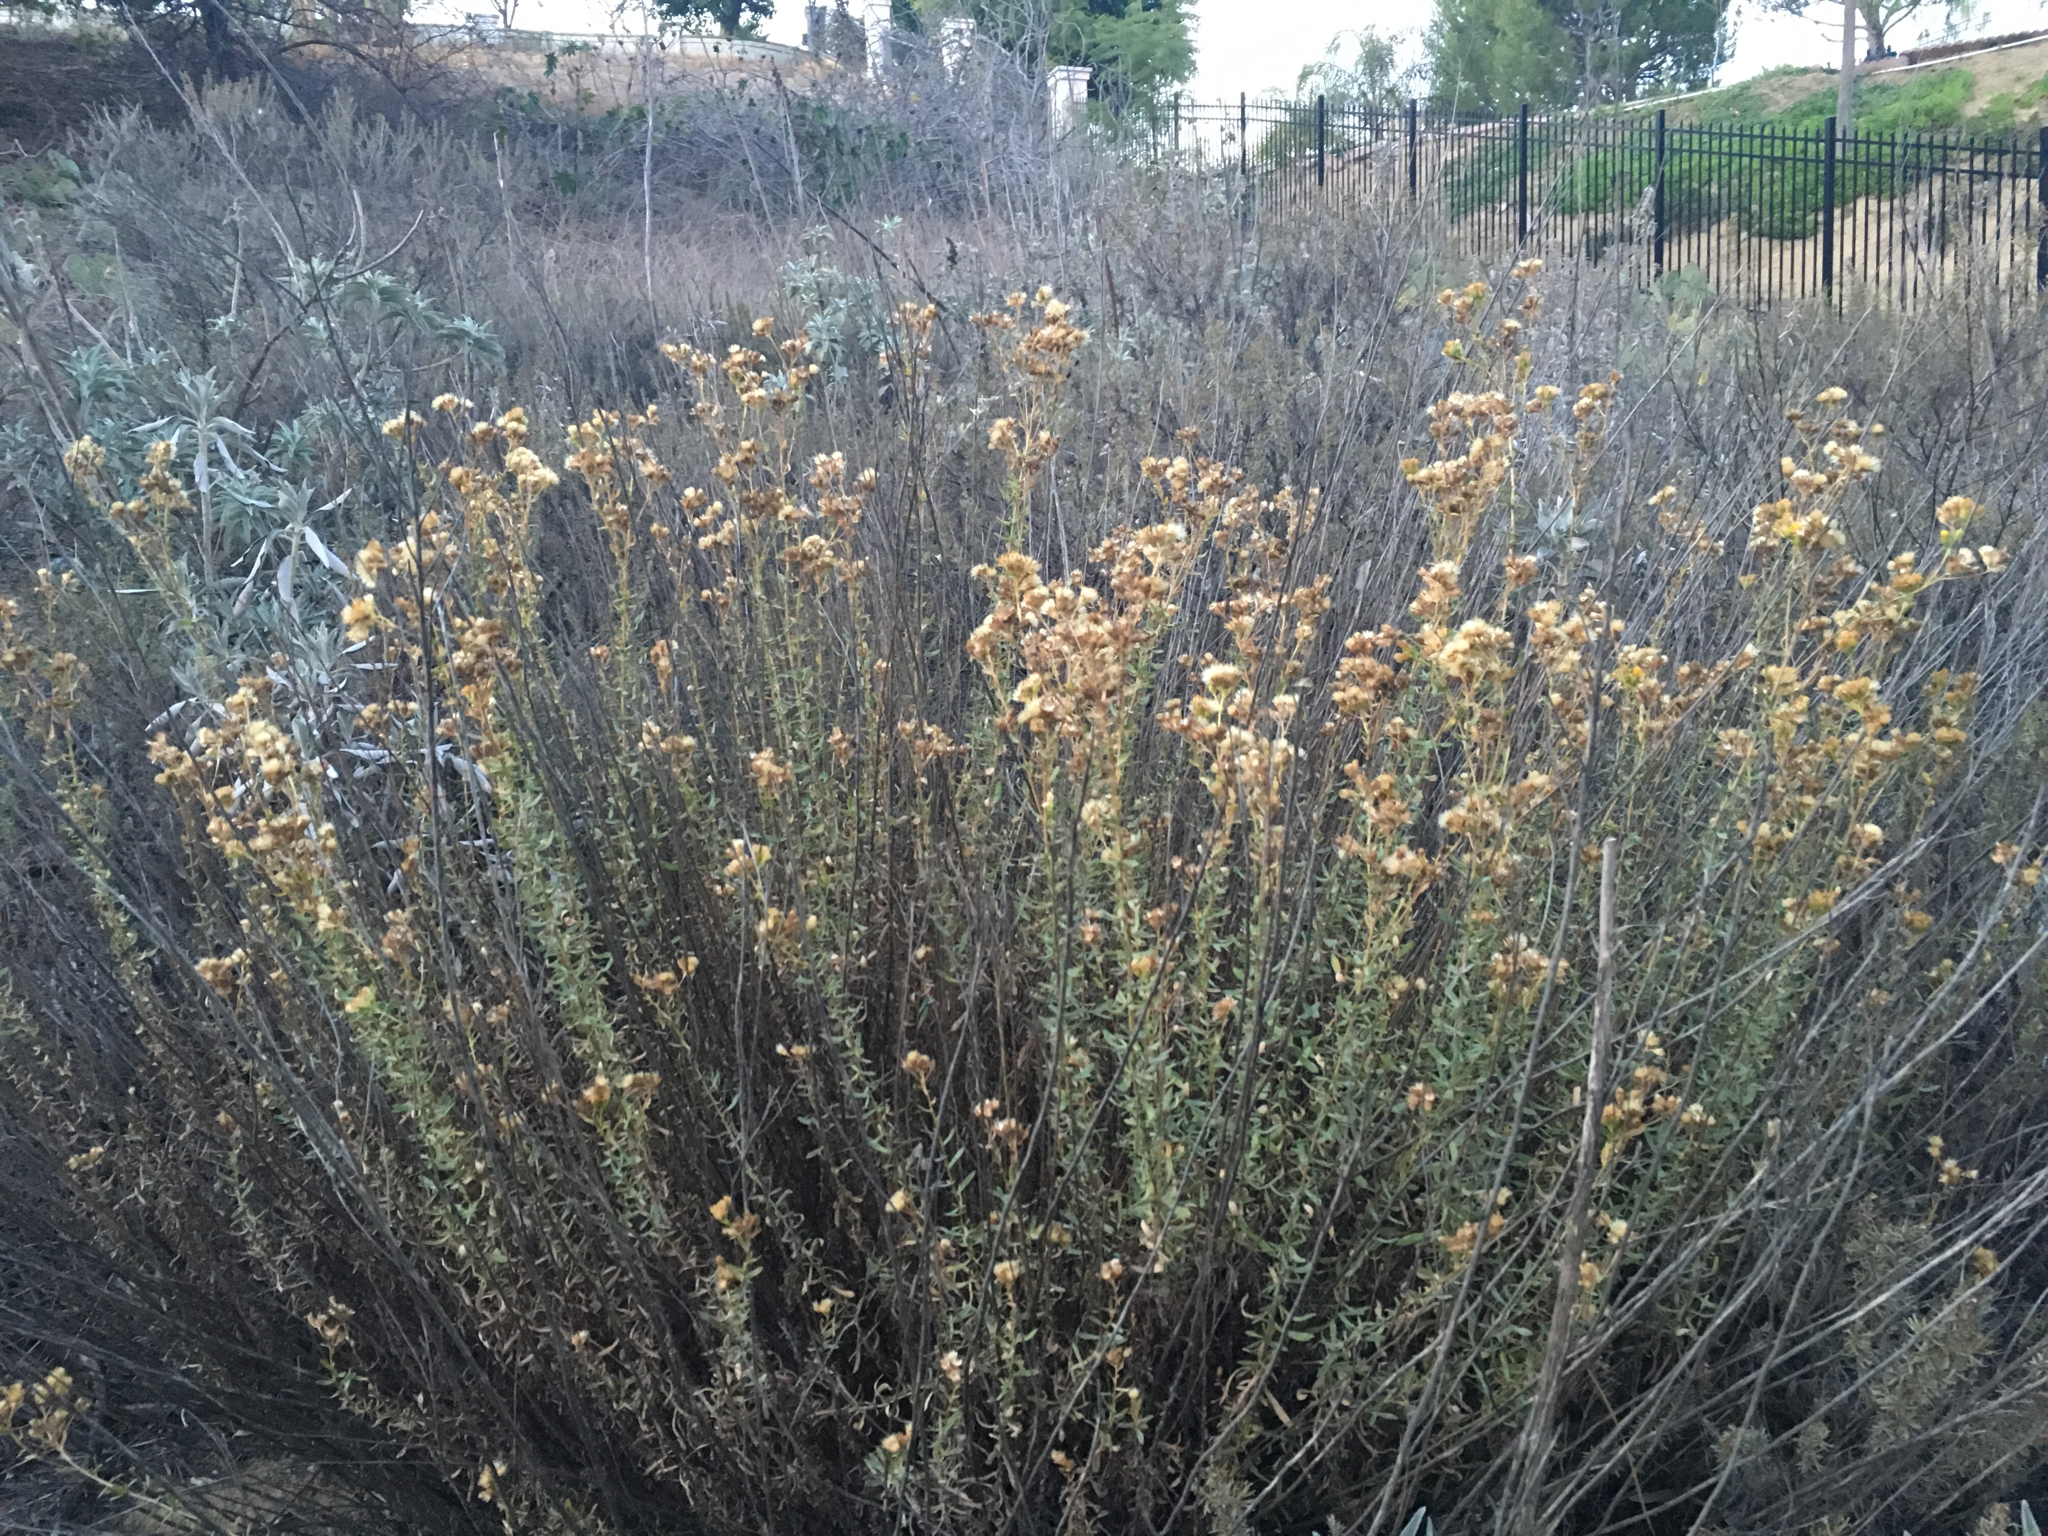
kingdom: Plantae
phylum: Tracheophyta
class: Magnoliopsida
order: Asterales
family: Asteraceae
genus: Isocoma
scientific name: Isocoma menziesii
